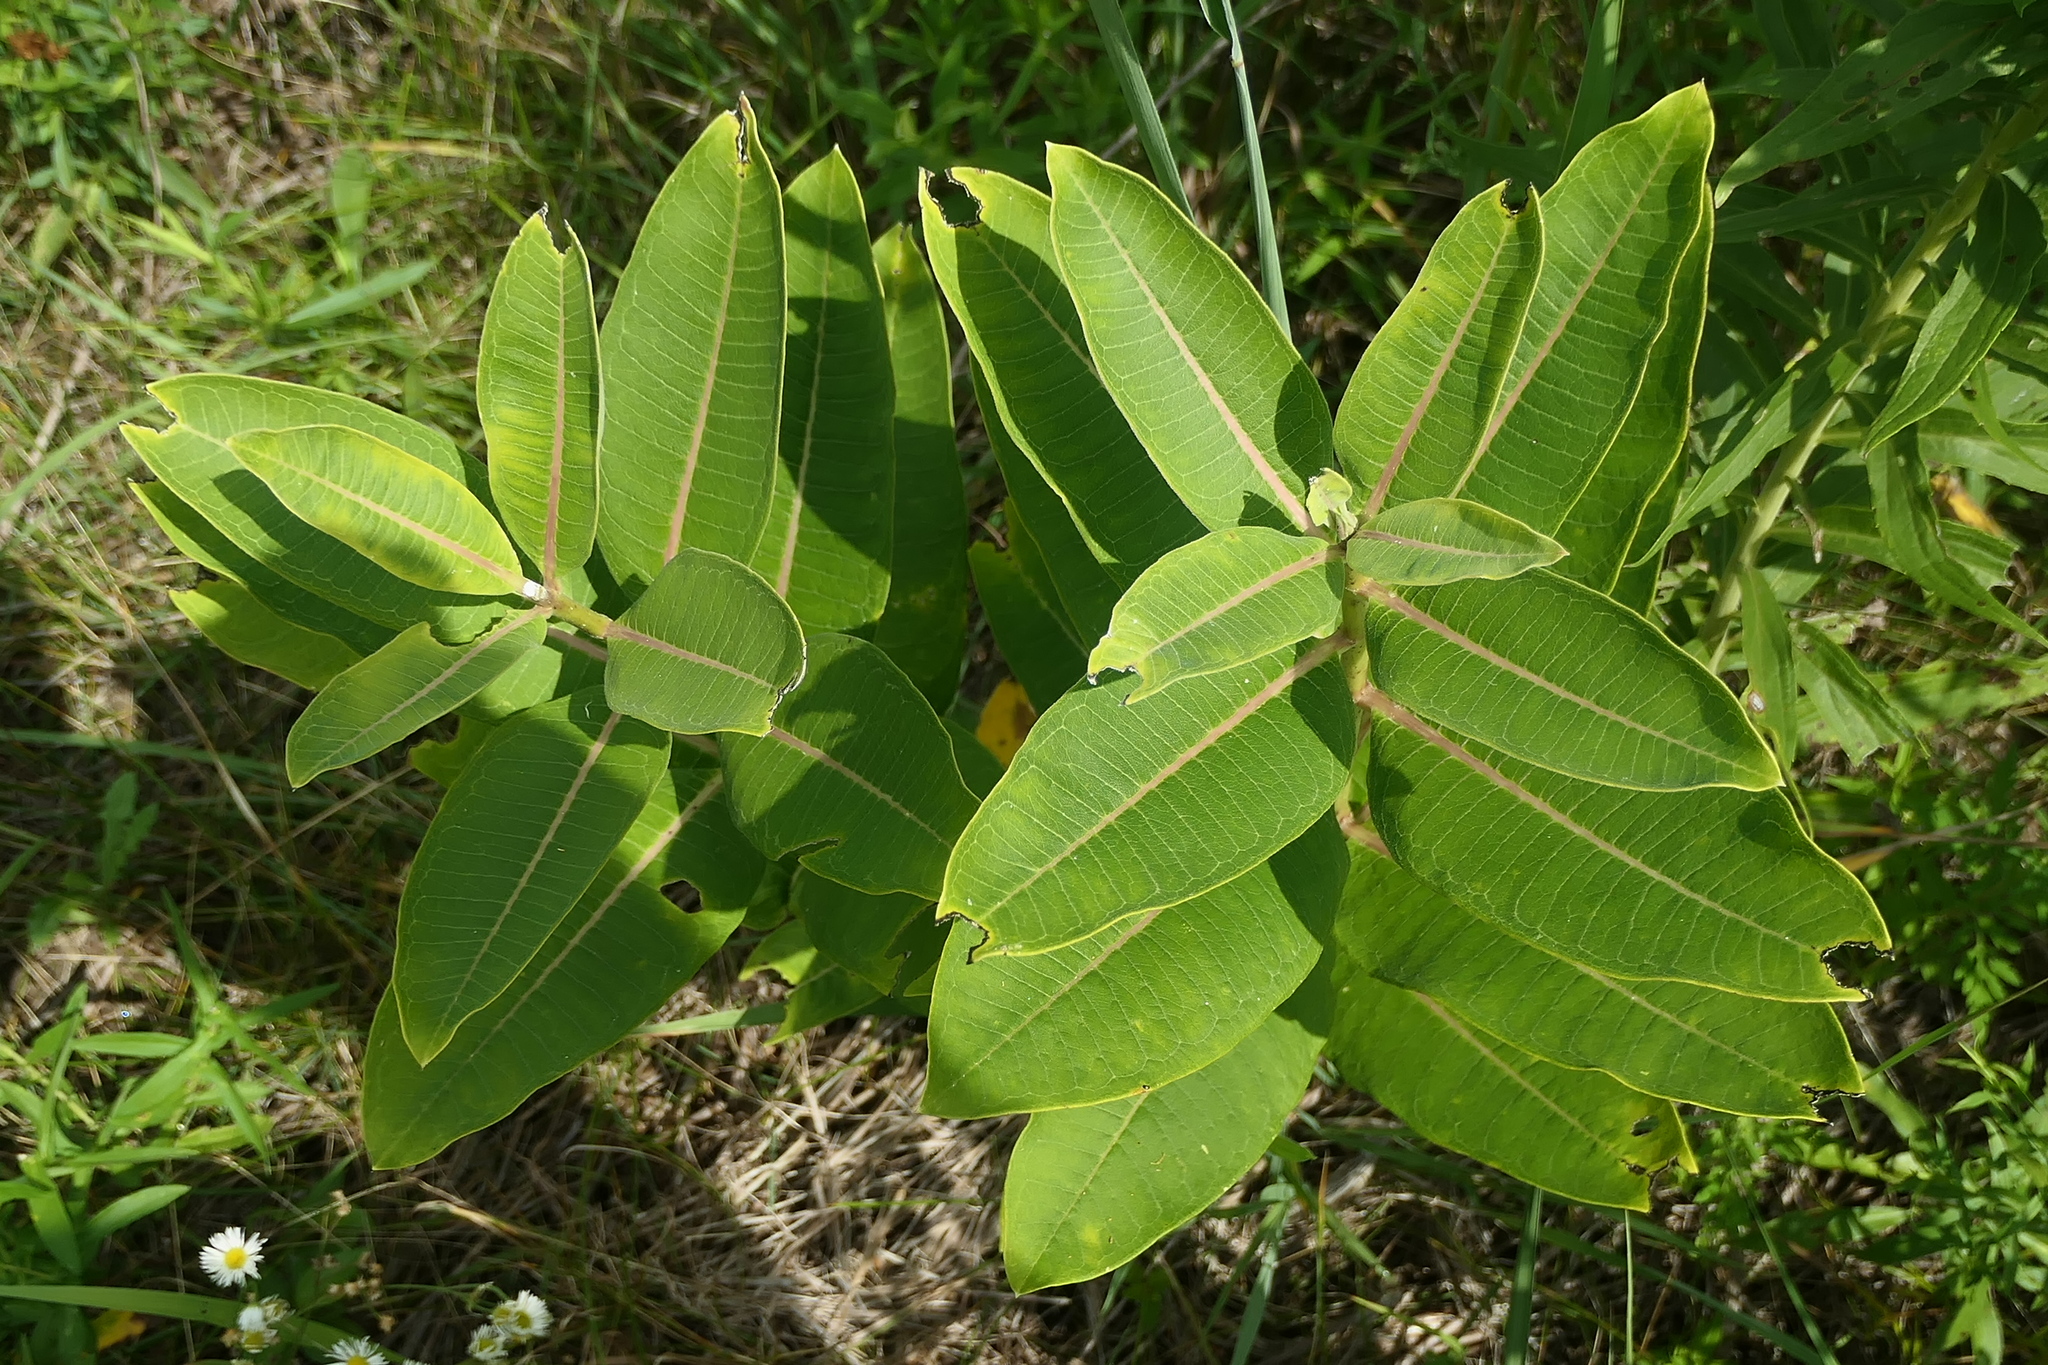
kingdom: Plantae
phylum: Tracheophyta
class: Magnoliopsida
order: Gentianales
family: Apocynaceae
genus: Asclepias
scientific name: Asclepias syriaca
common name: Common milkweed
